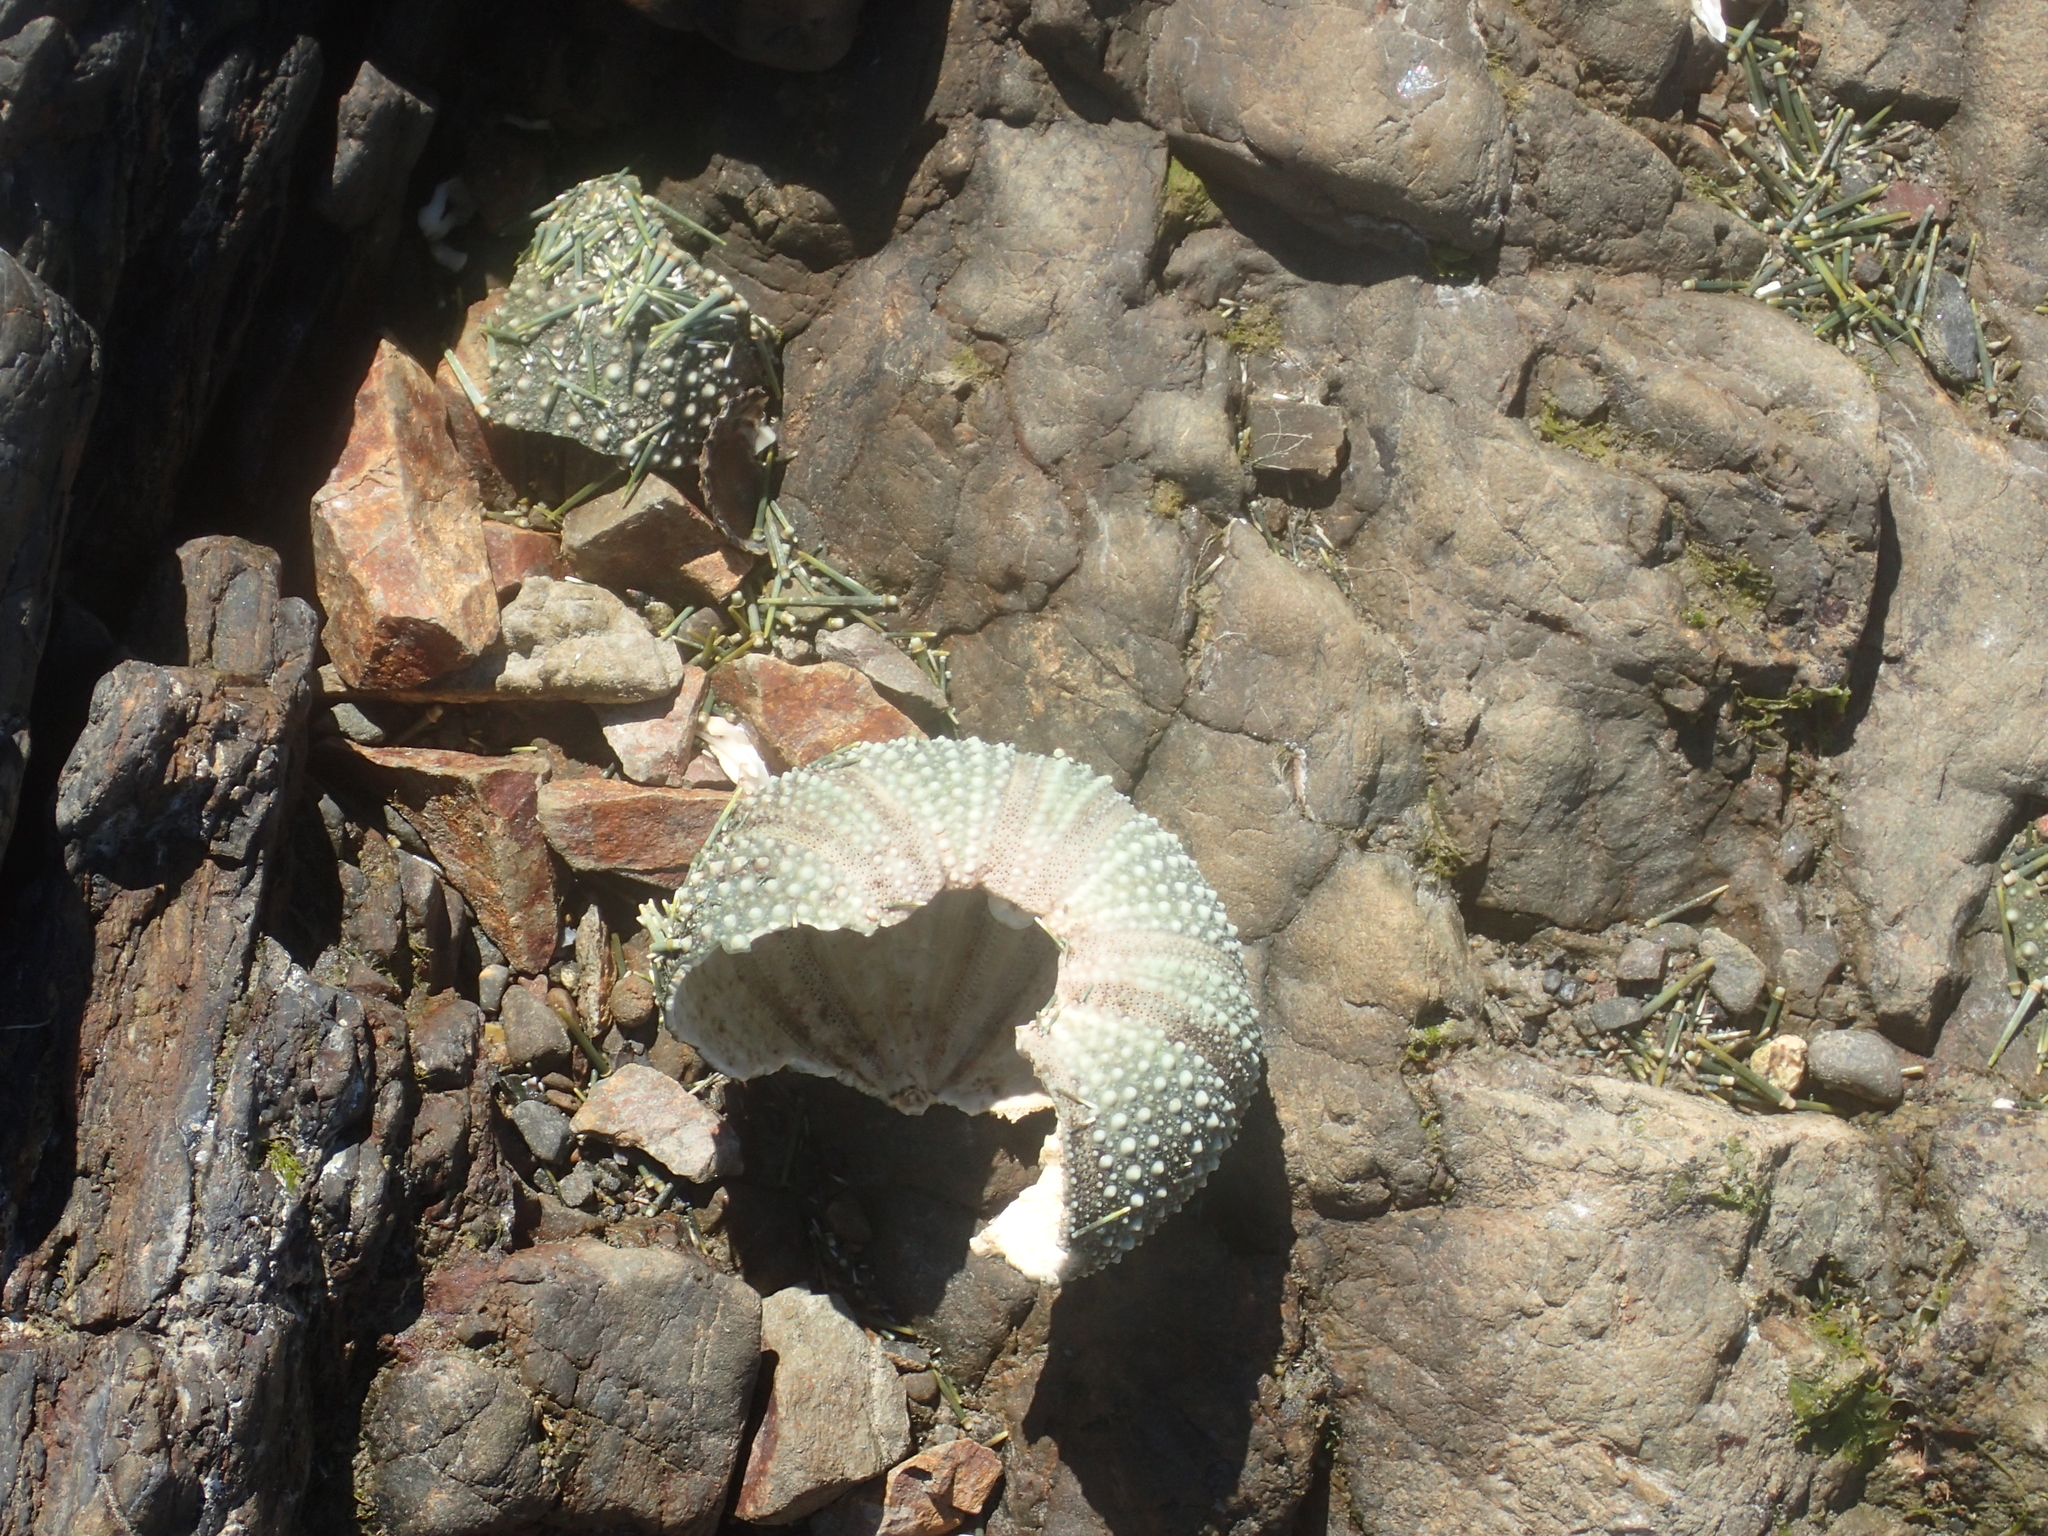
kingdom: Animalia
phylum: Echinodermata
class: Echinoidea
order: Camarodonta
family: Echinometridae
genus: Evechinus
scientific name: Evechinus chloroticus
